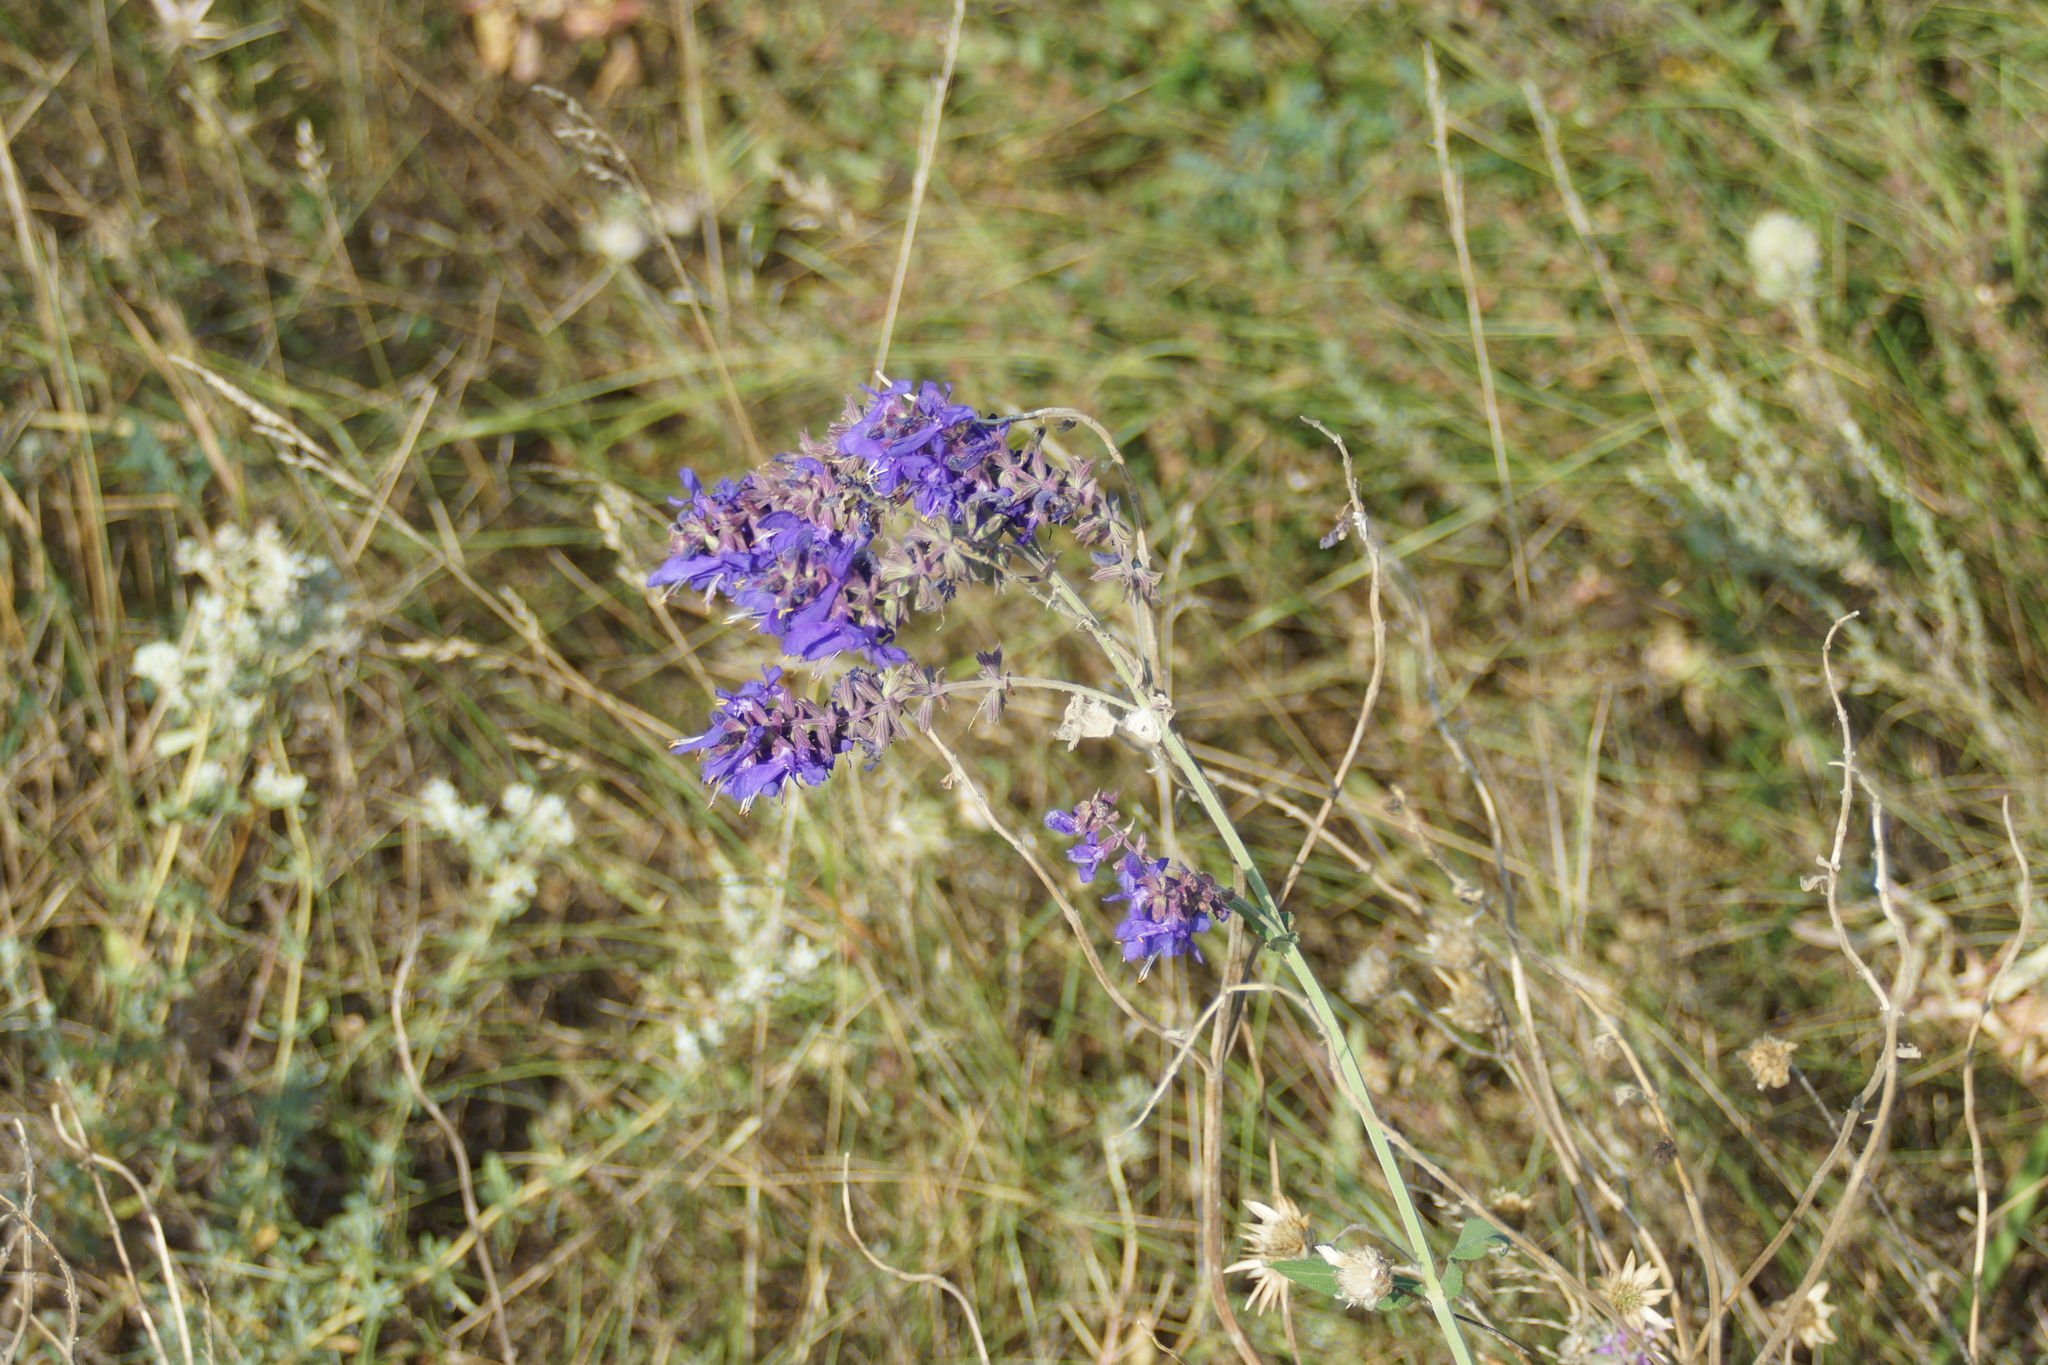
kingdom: Plantae
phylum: Tracheophyta
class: Magnoliopsida
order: Lamiales
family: Lamiaceae
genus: Salvia
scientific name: Salvia nutans
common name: Nodding sage
